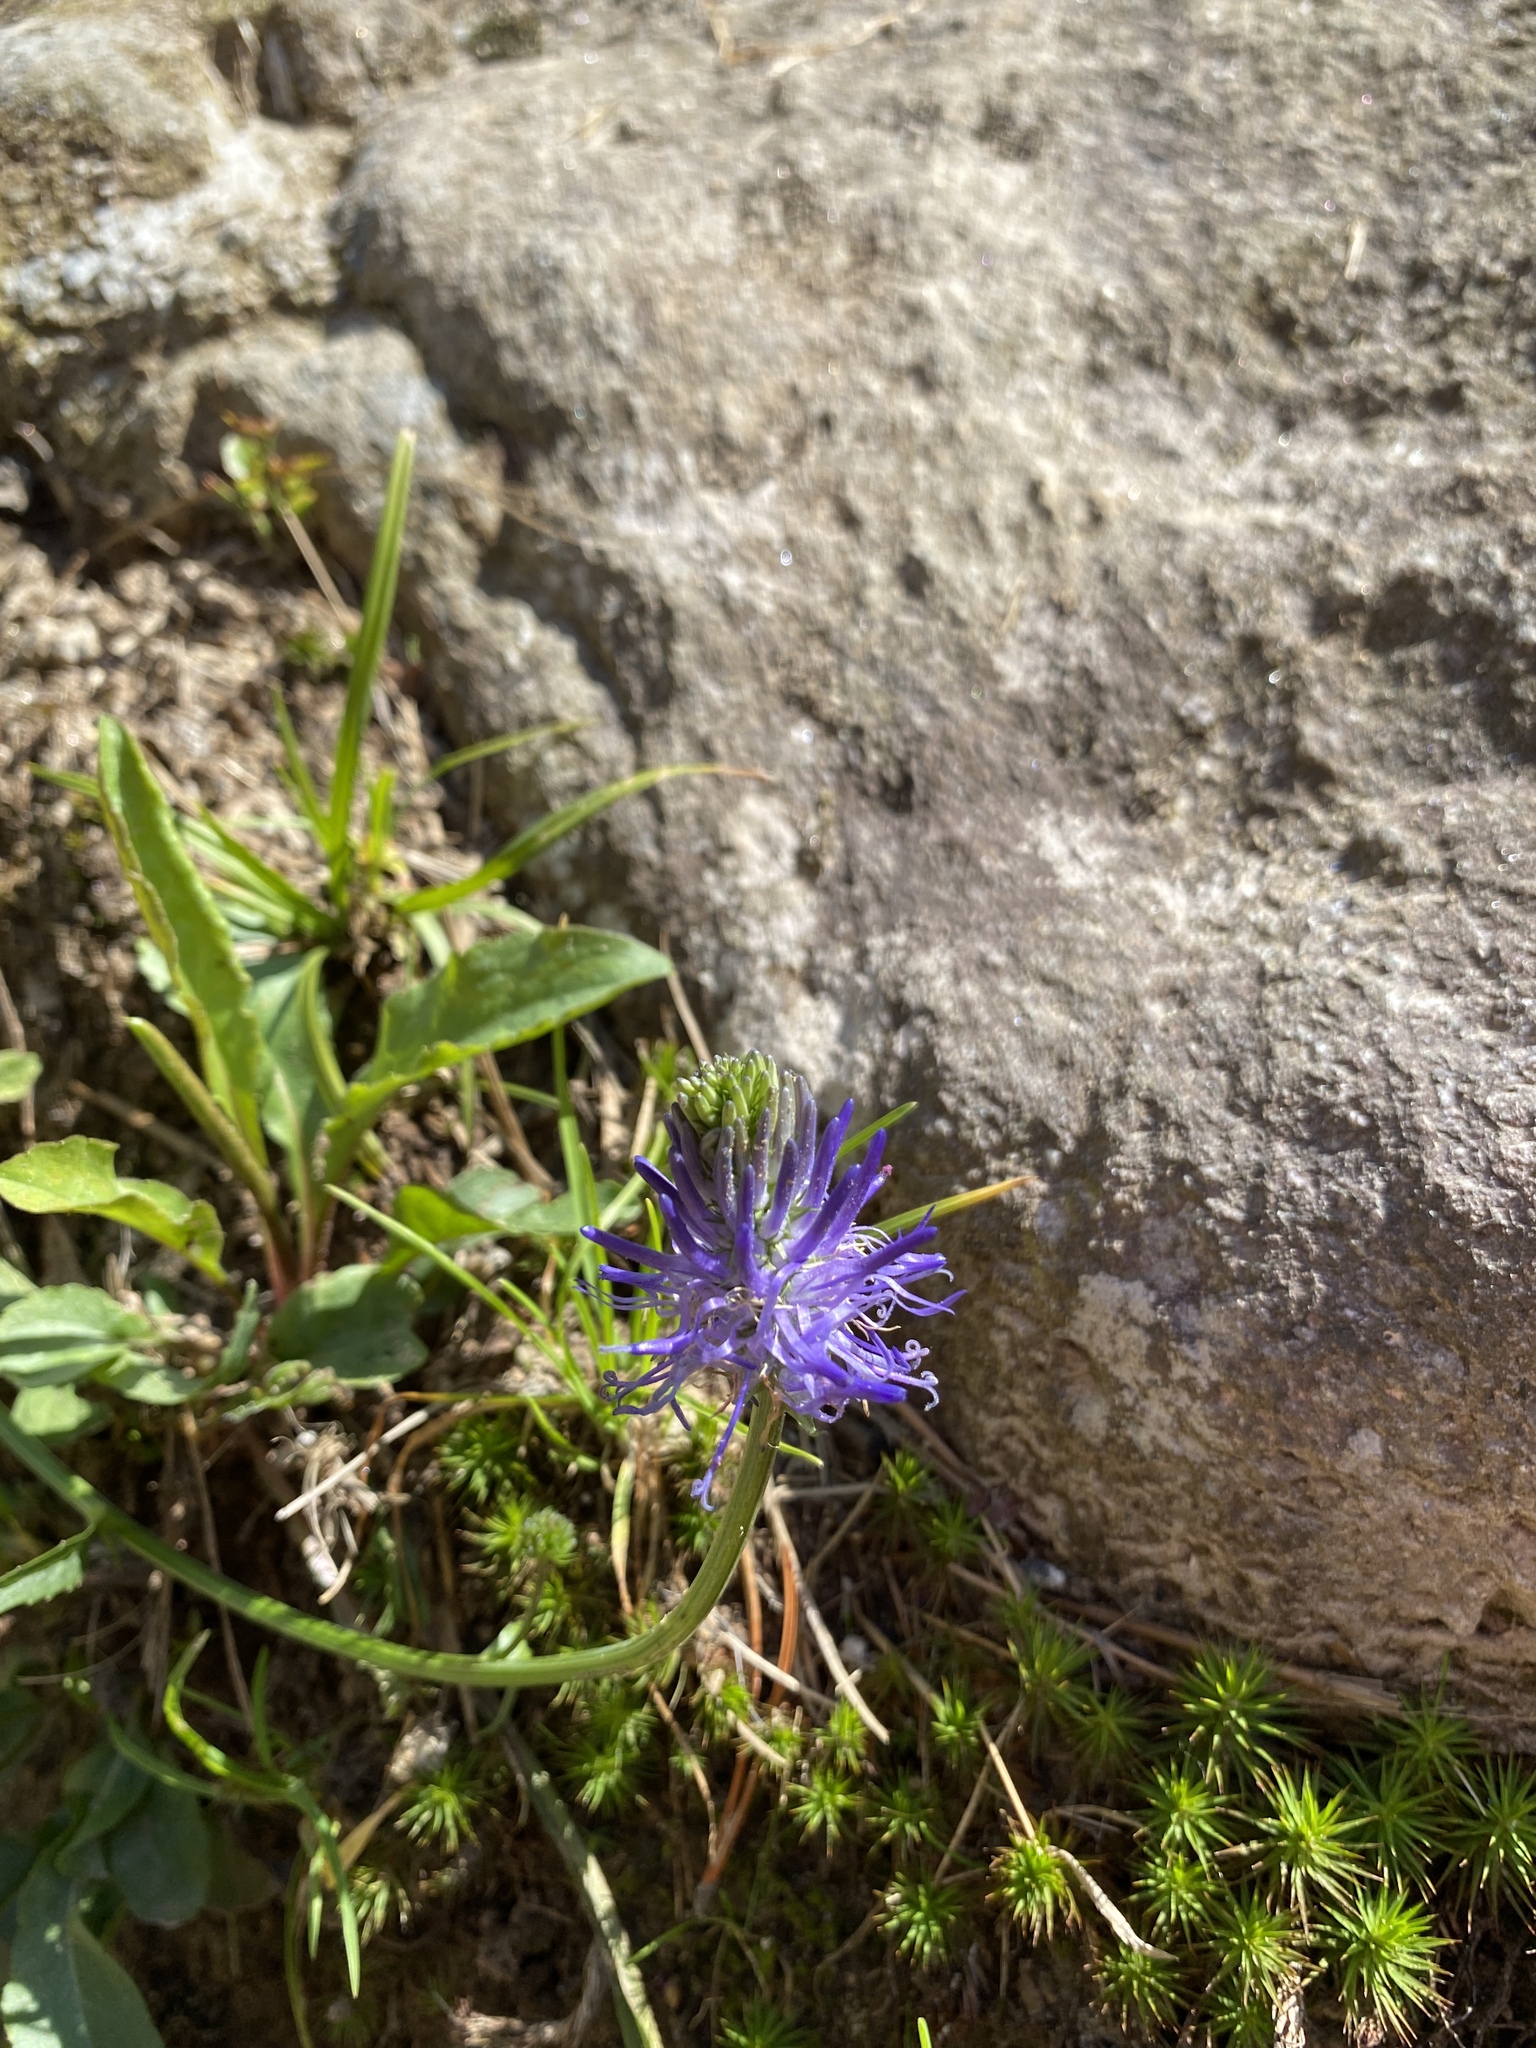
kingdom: Plantae
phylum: Tracheophyta
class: Magnoliopsida
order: Asterales
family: Campanulaceae
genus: Phyteuma
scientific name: Phyteuma betonicifolium
